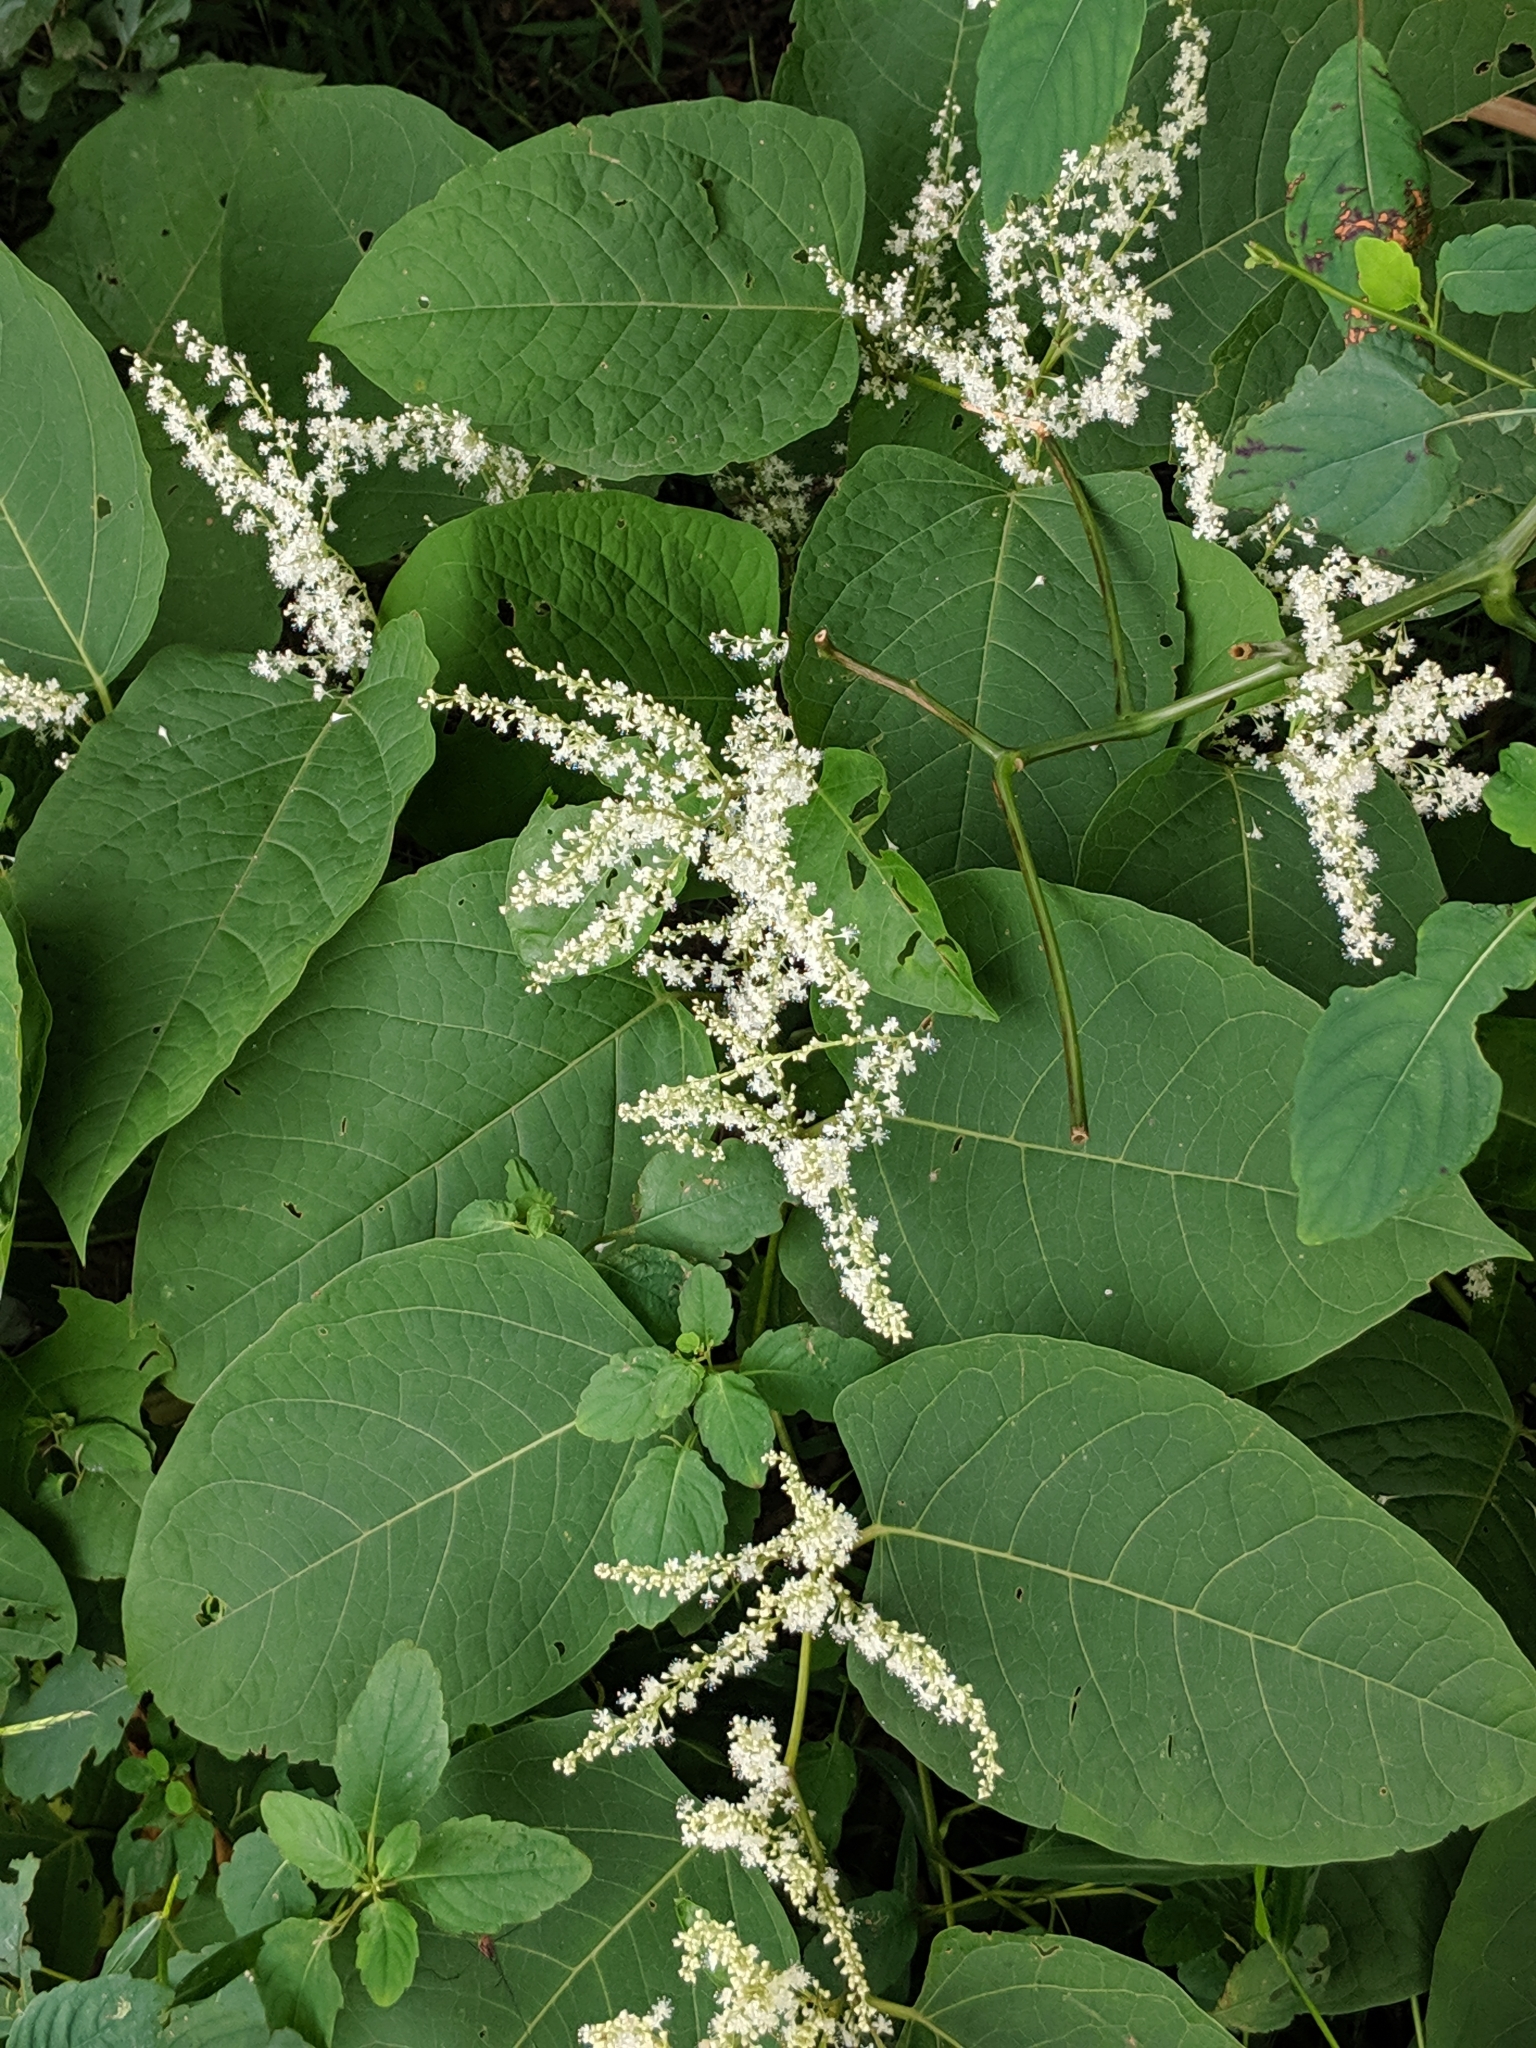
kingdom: Plantae
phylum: Tracheophyta
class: Magnoliopsida
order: Caryophyllales
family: Polygonaceae
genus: Reynoutria
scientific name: Reynoutria japonica
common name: Japanese knotweed
